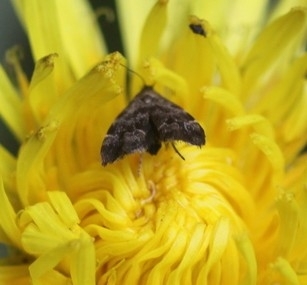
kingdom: Animalia
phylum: Arthropoda
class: Insecta
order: Lepidoptera
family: Choreutidae
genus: Anthophila
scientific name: Anthophila fabriciana
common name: Nettle-tap
